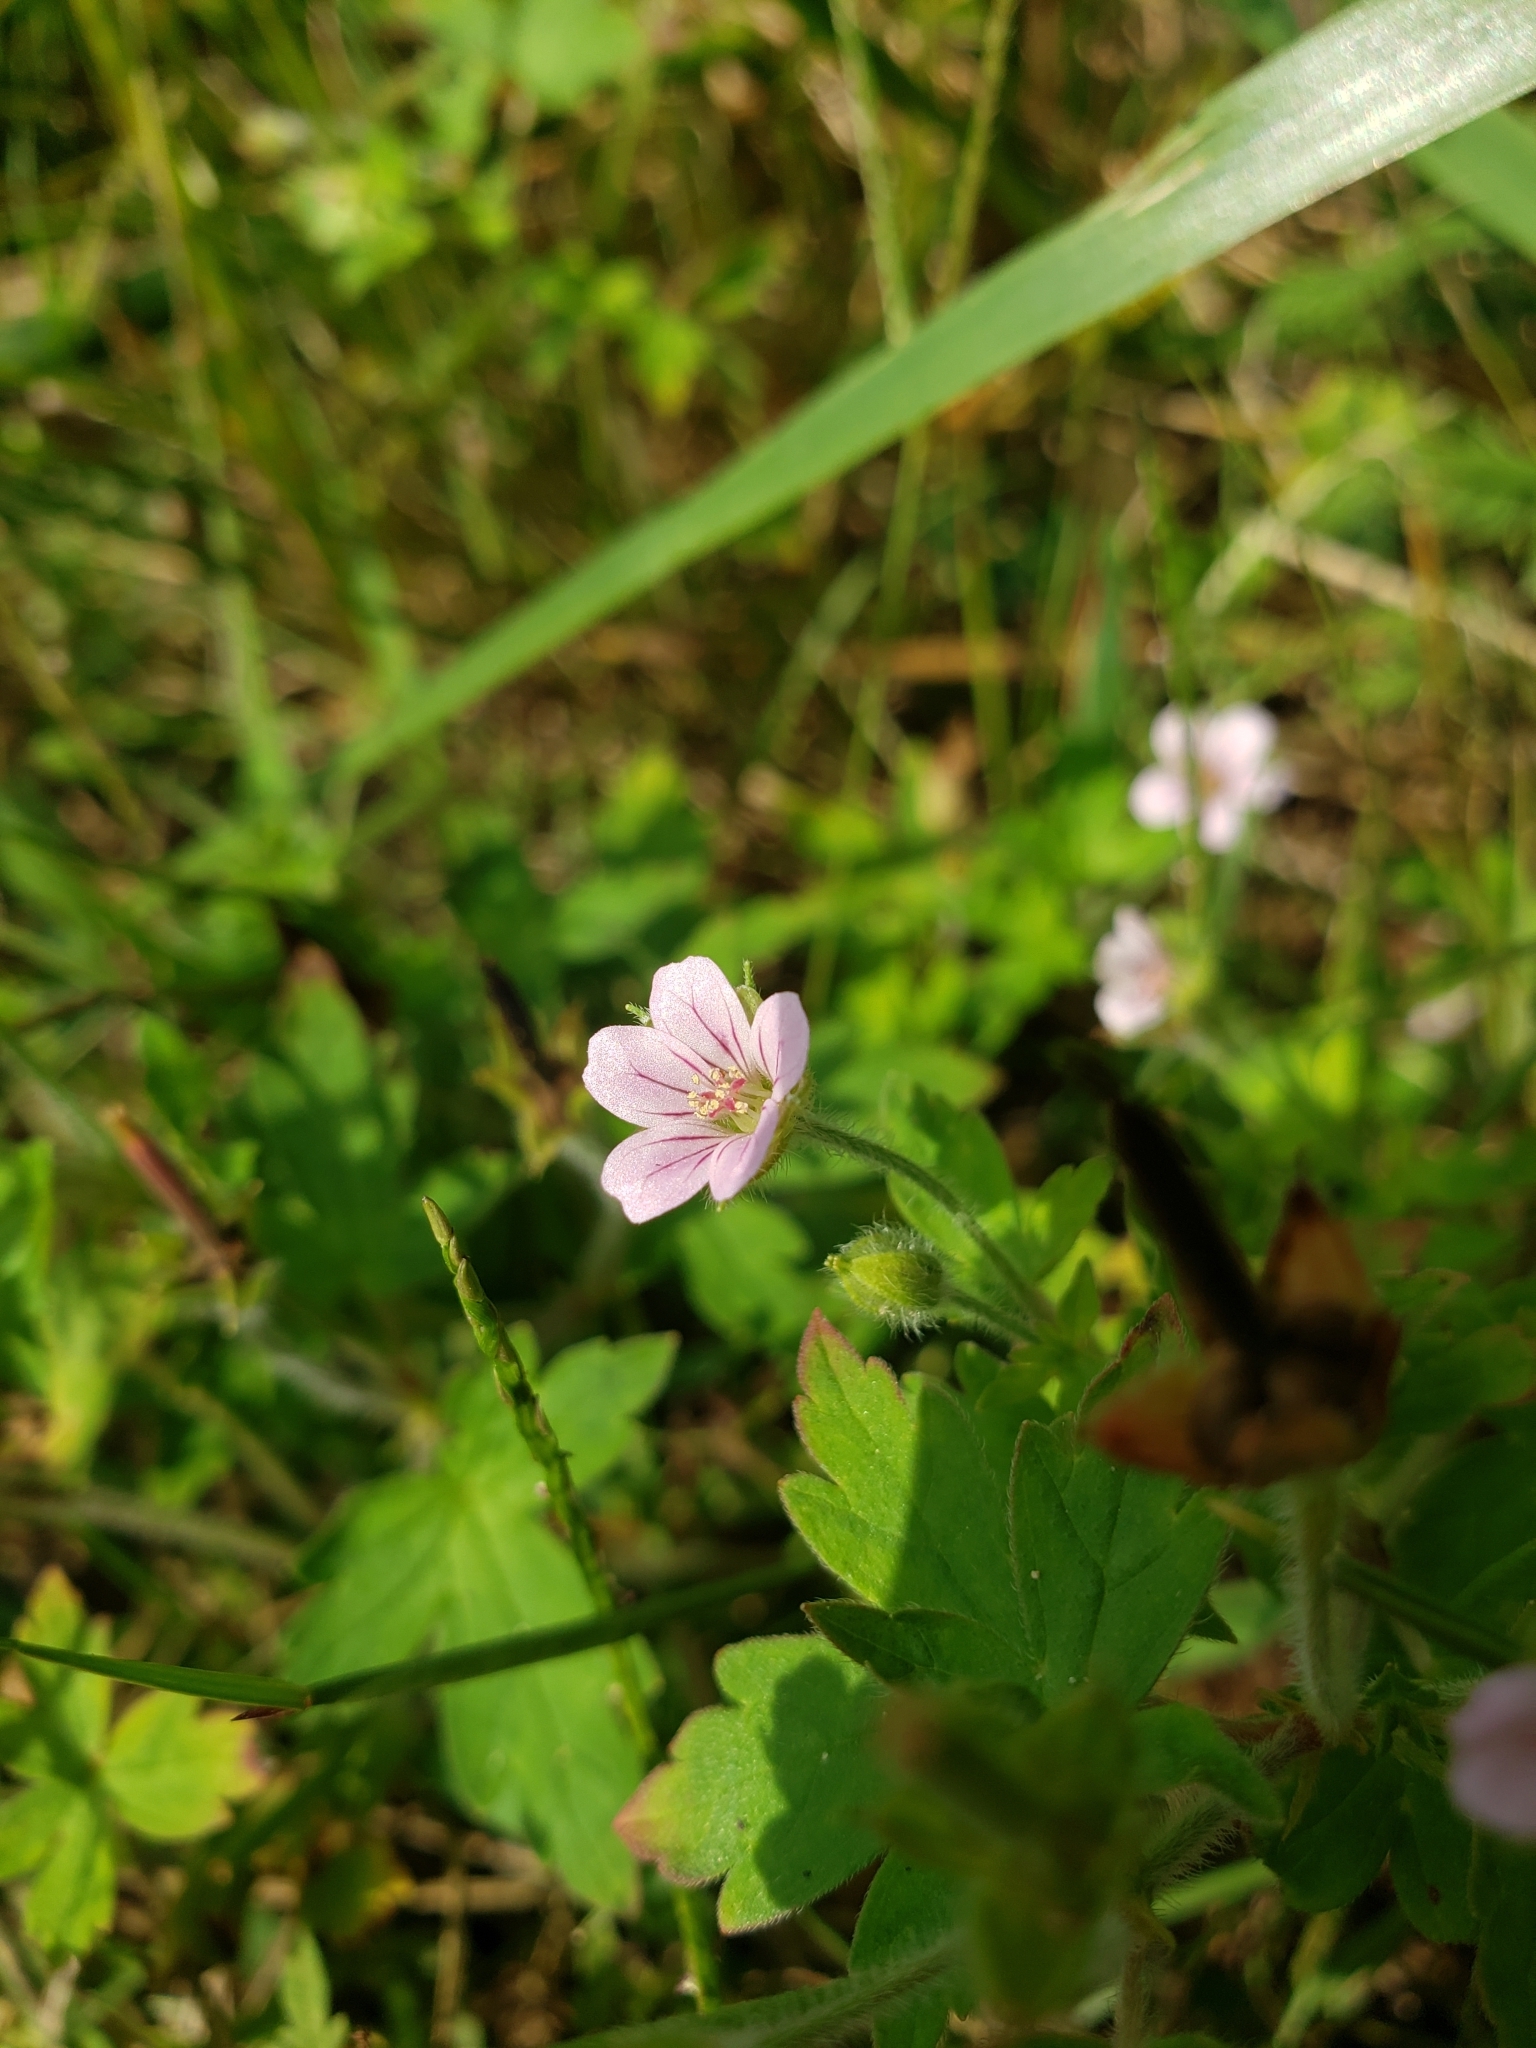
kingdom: Plantae
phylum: Tracheophyta
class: Magnoliopsida
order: Geraniales
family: Geraniaceae
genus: Geranium
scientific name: Geranium sibiricum
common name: Siberian crane's-bill
